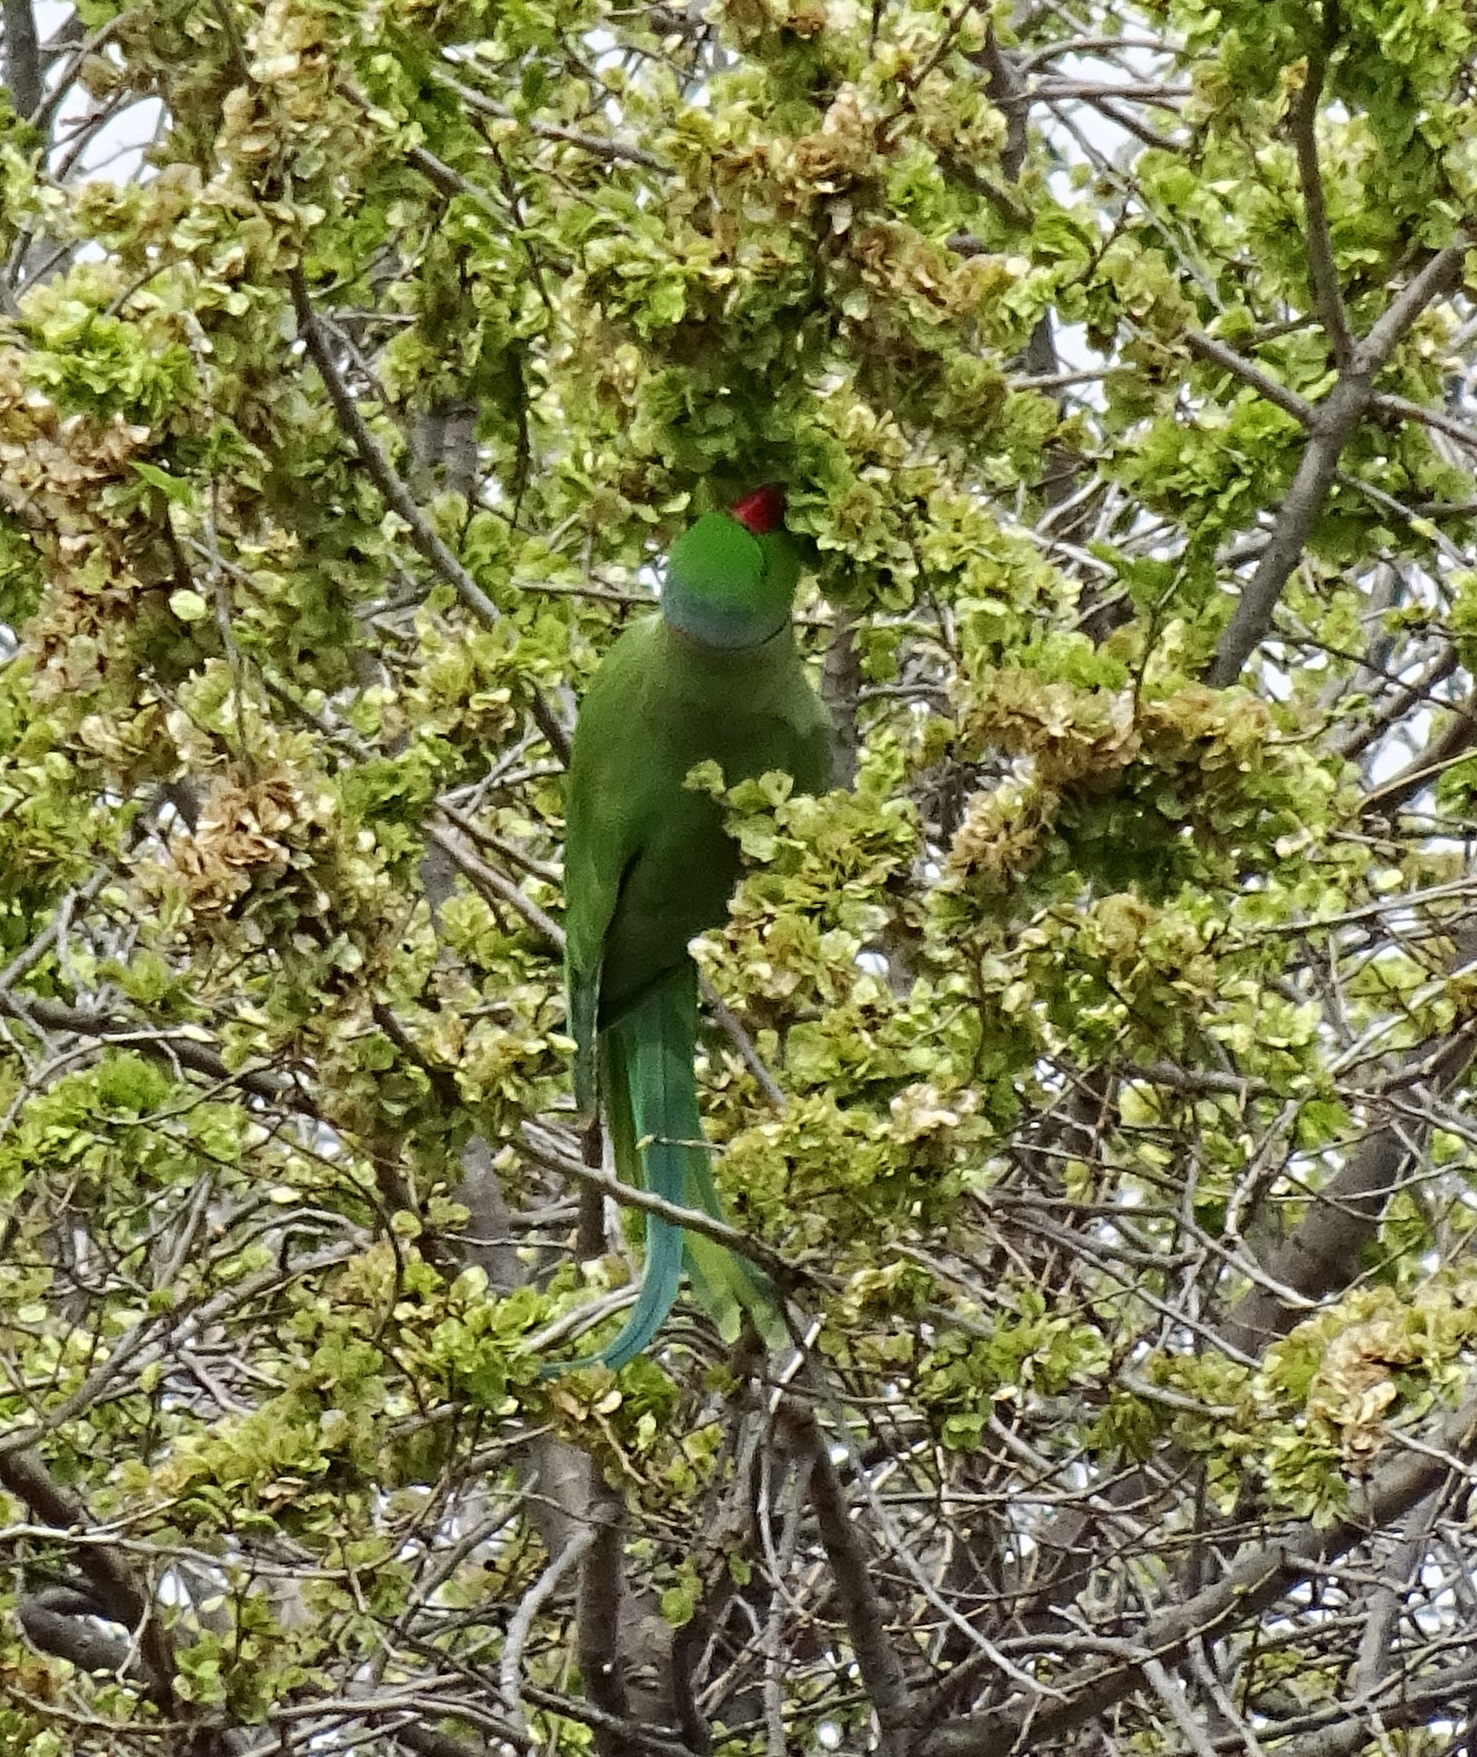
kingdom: Animalia
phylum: Chordata
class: Aves
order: Psittaciformes
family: Psittacidae
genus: Psittacula
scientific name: Psittacula krameri
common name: Rose-ringed parakeet
